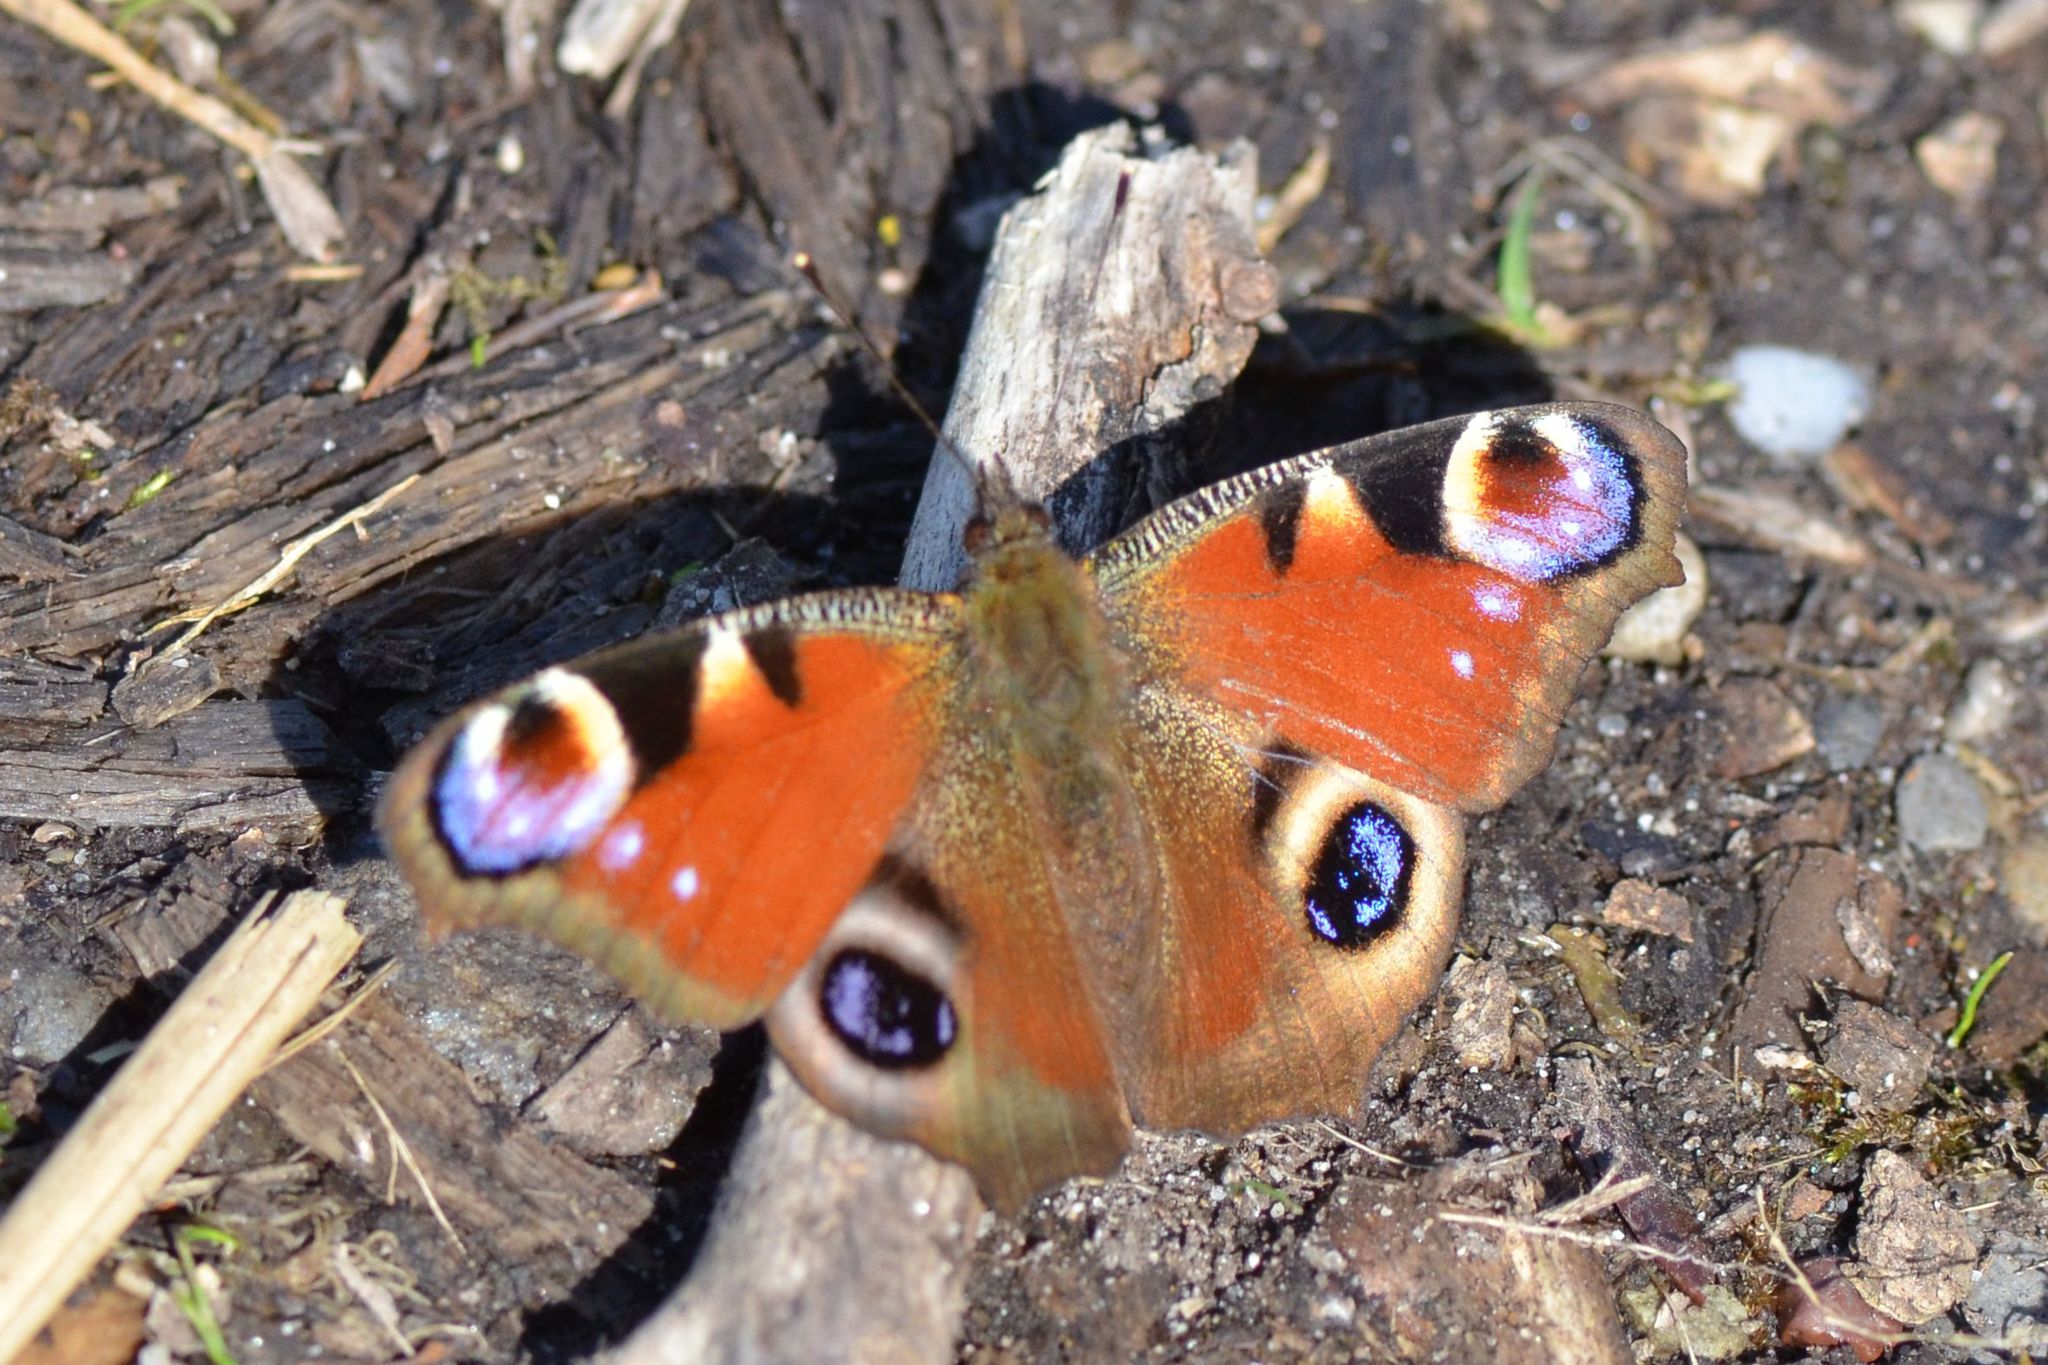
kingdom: Animalia
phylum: Arthropoda
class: Insecta
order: Lepidoptera
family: Nymphalidae
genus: Aglais
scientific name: Aglais io
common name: Peacock
